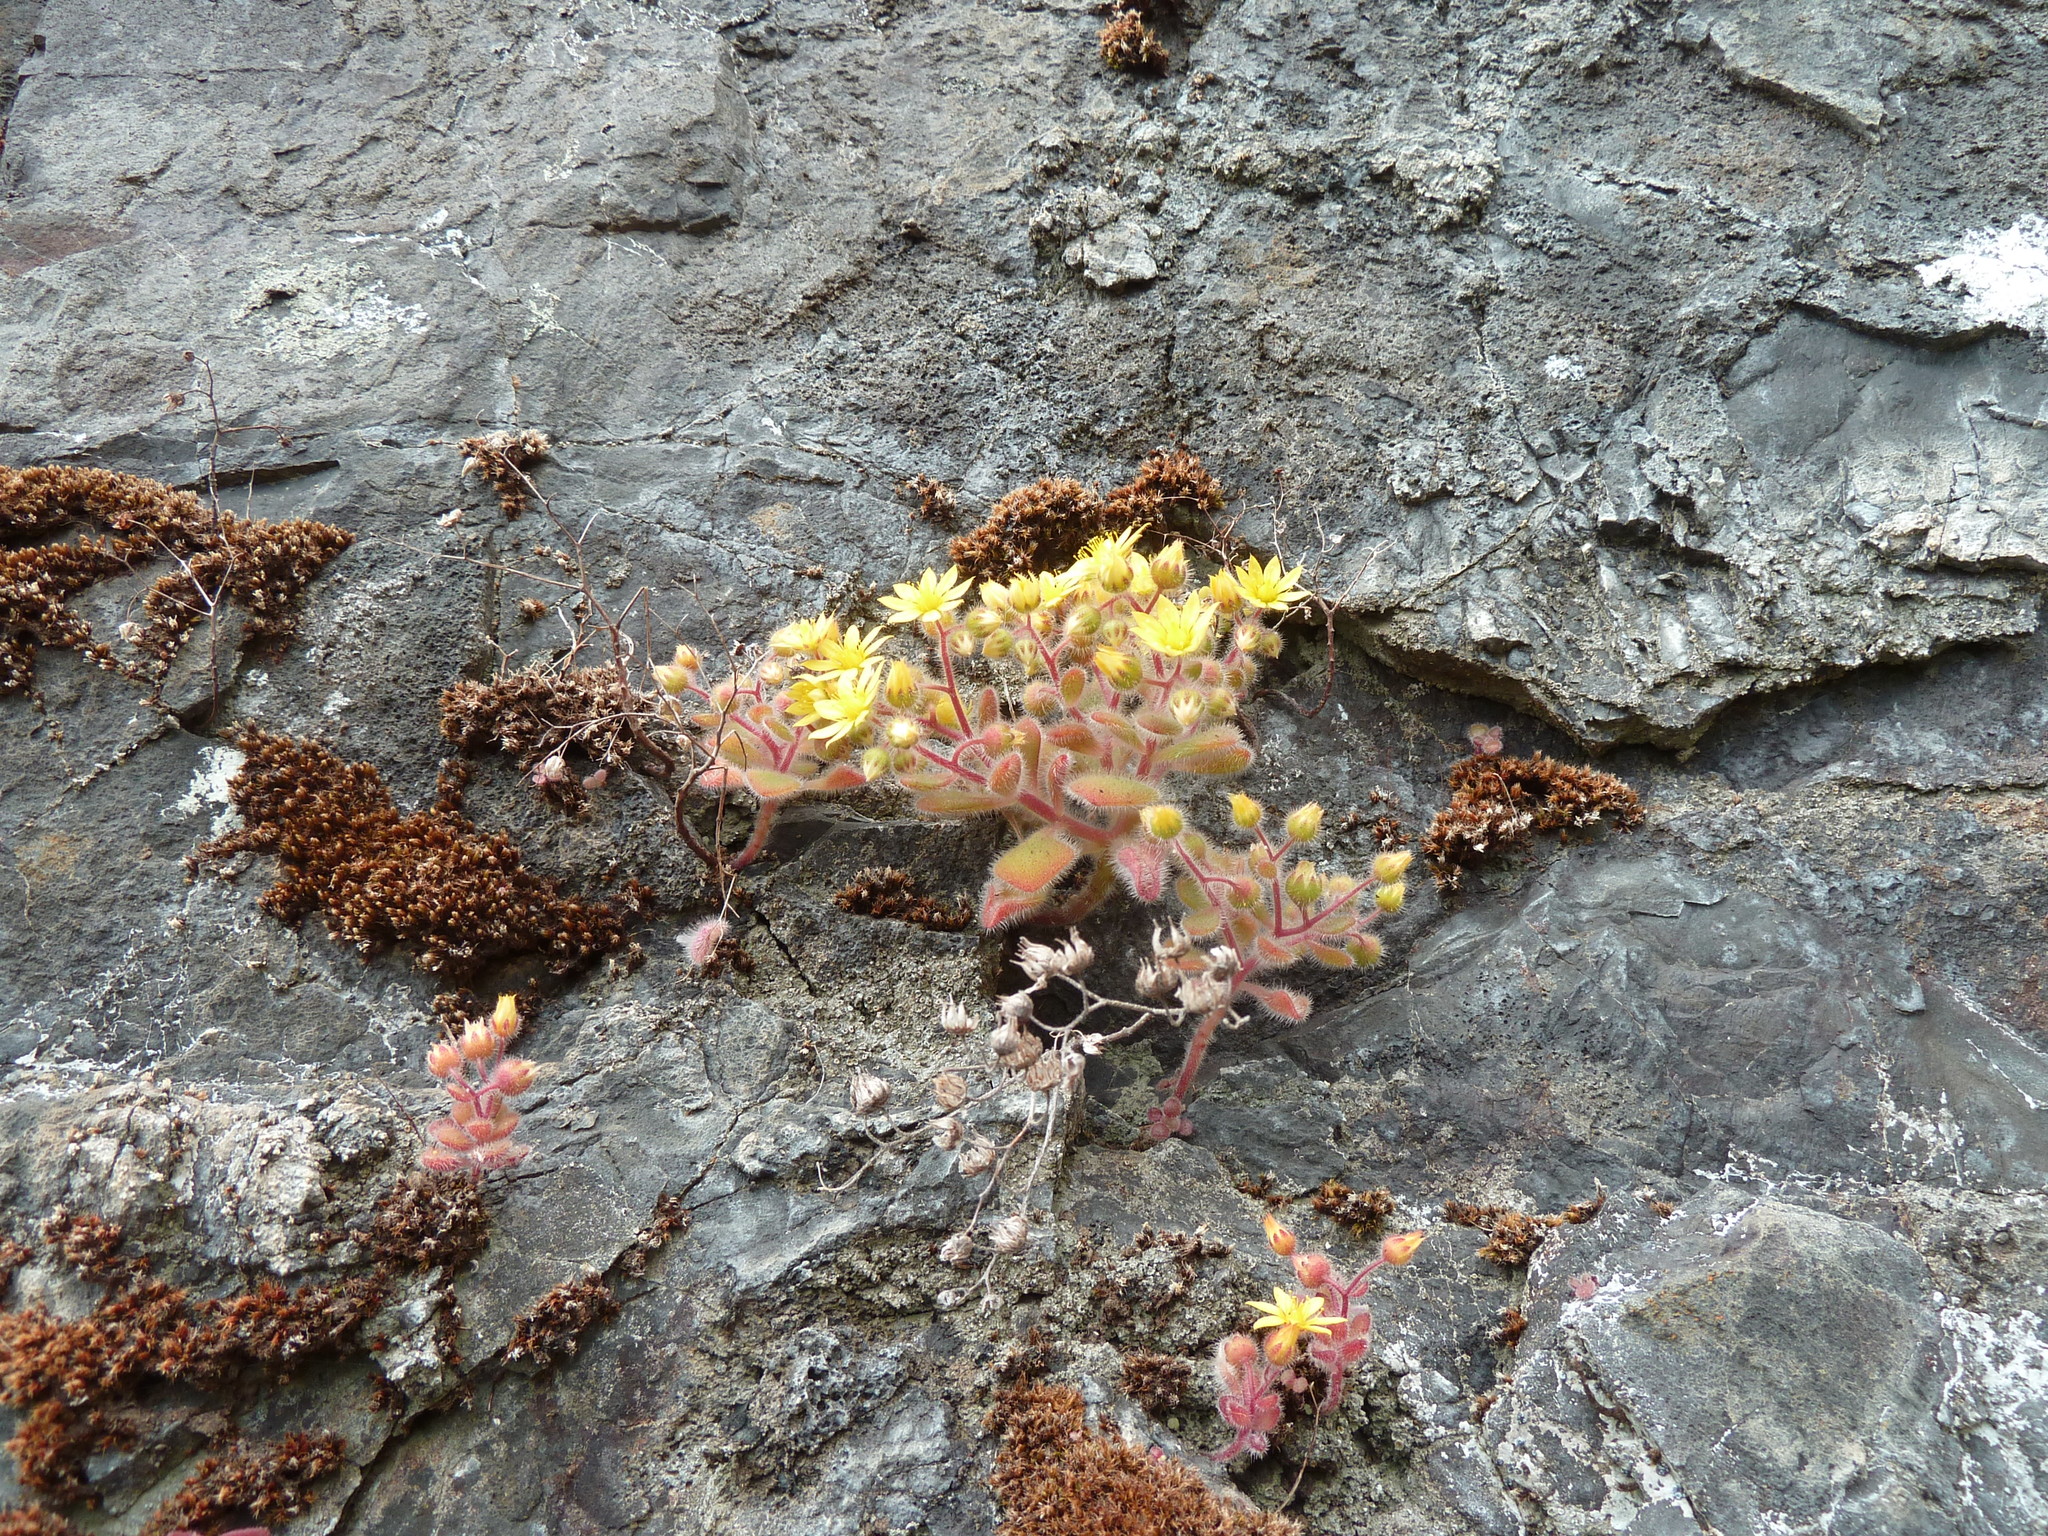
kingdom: Plantae
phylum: Tracheophyta
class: Magnoliopsida
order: Saxifragales
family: Crassulaceae
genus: Aichryson
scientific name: Aichryson villosum
